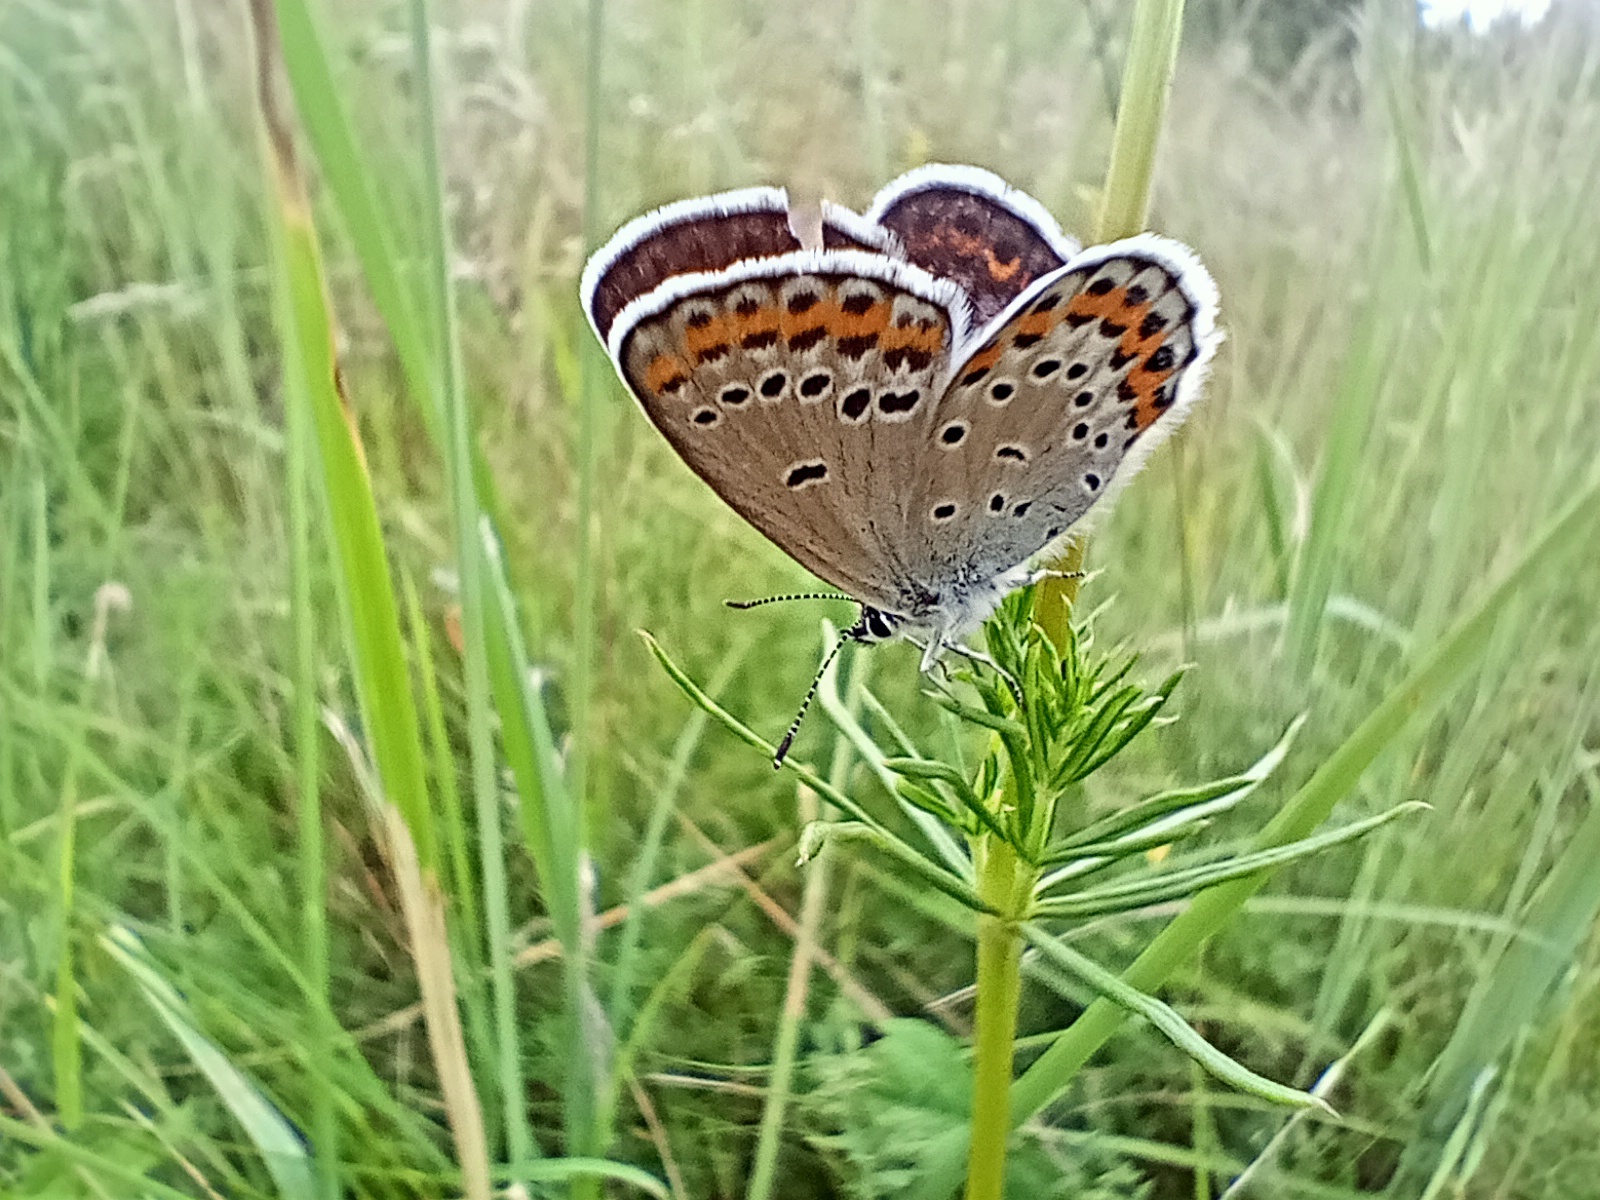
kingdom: Animalia
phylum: Arthropoda
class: Insecta
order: Lepidoptera
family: Lycaenidae
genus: Plebejus
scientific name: Plebejus argyrognomon
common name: Reverdin's blue
